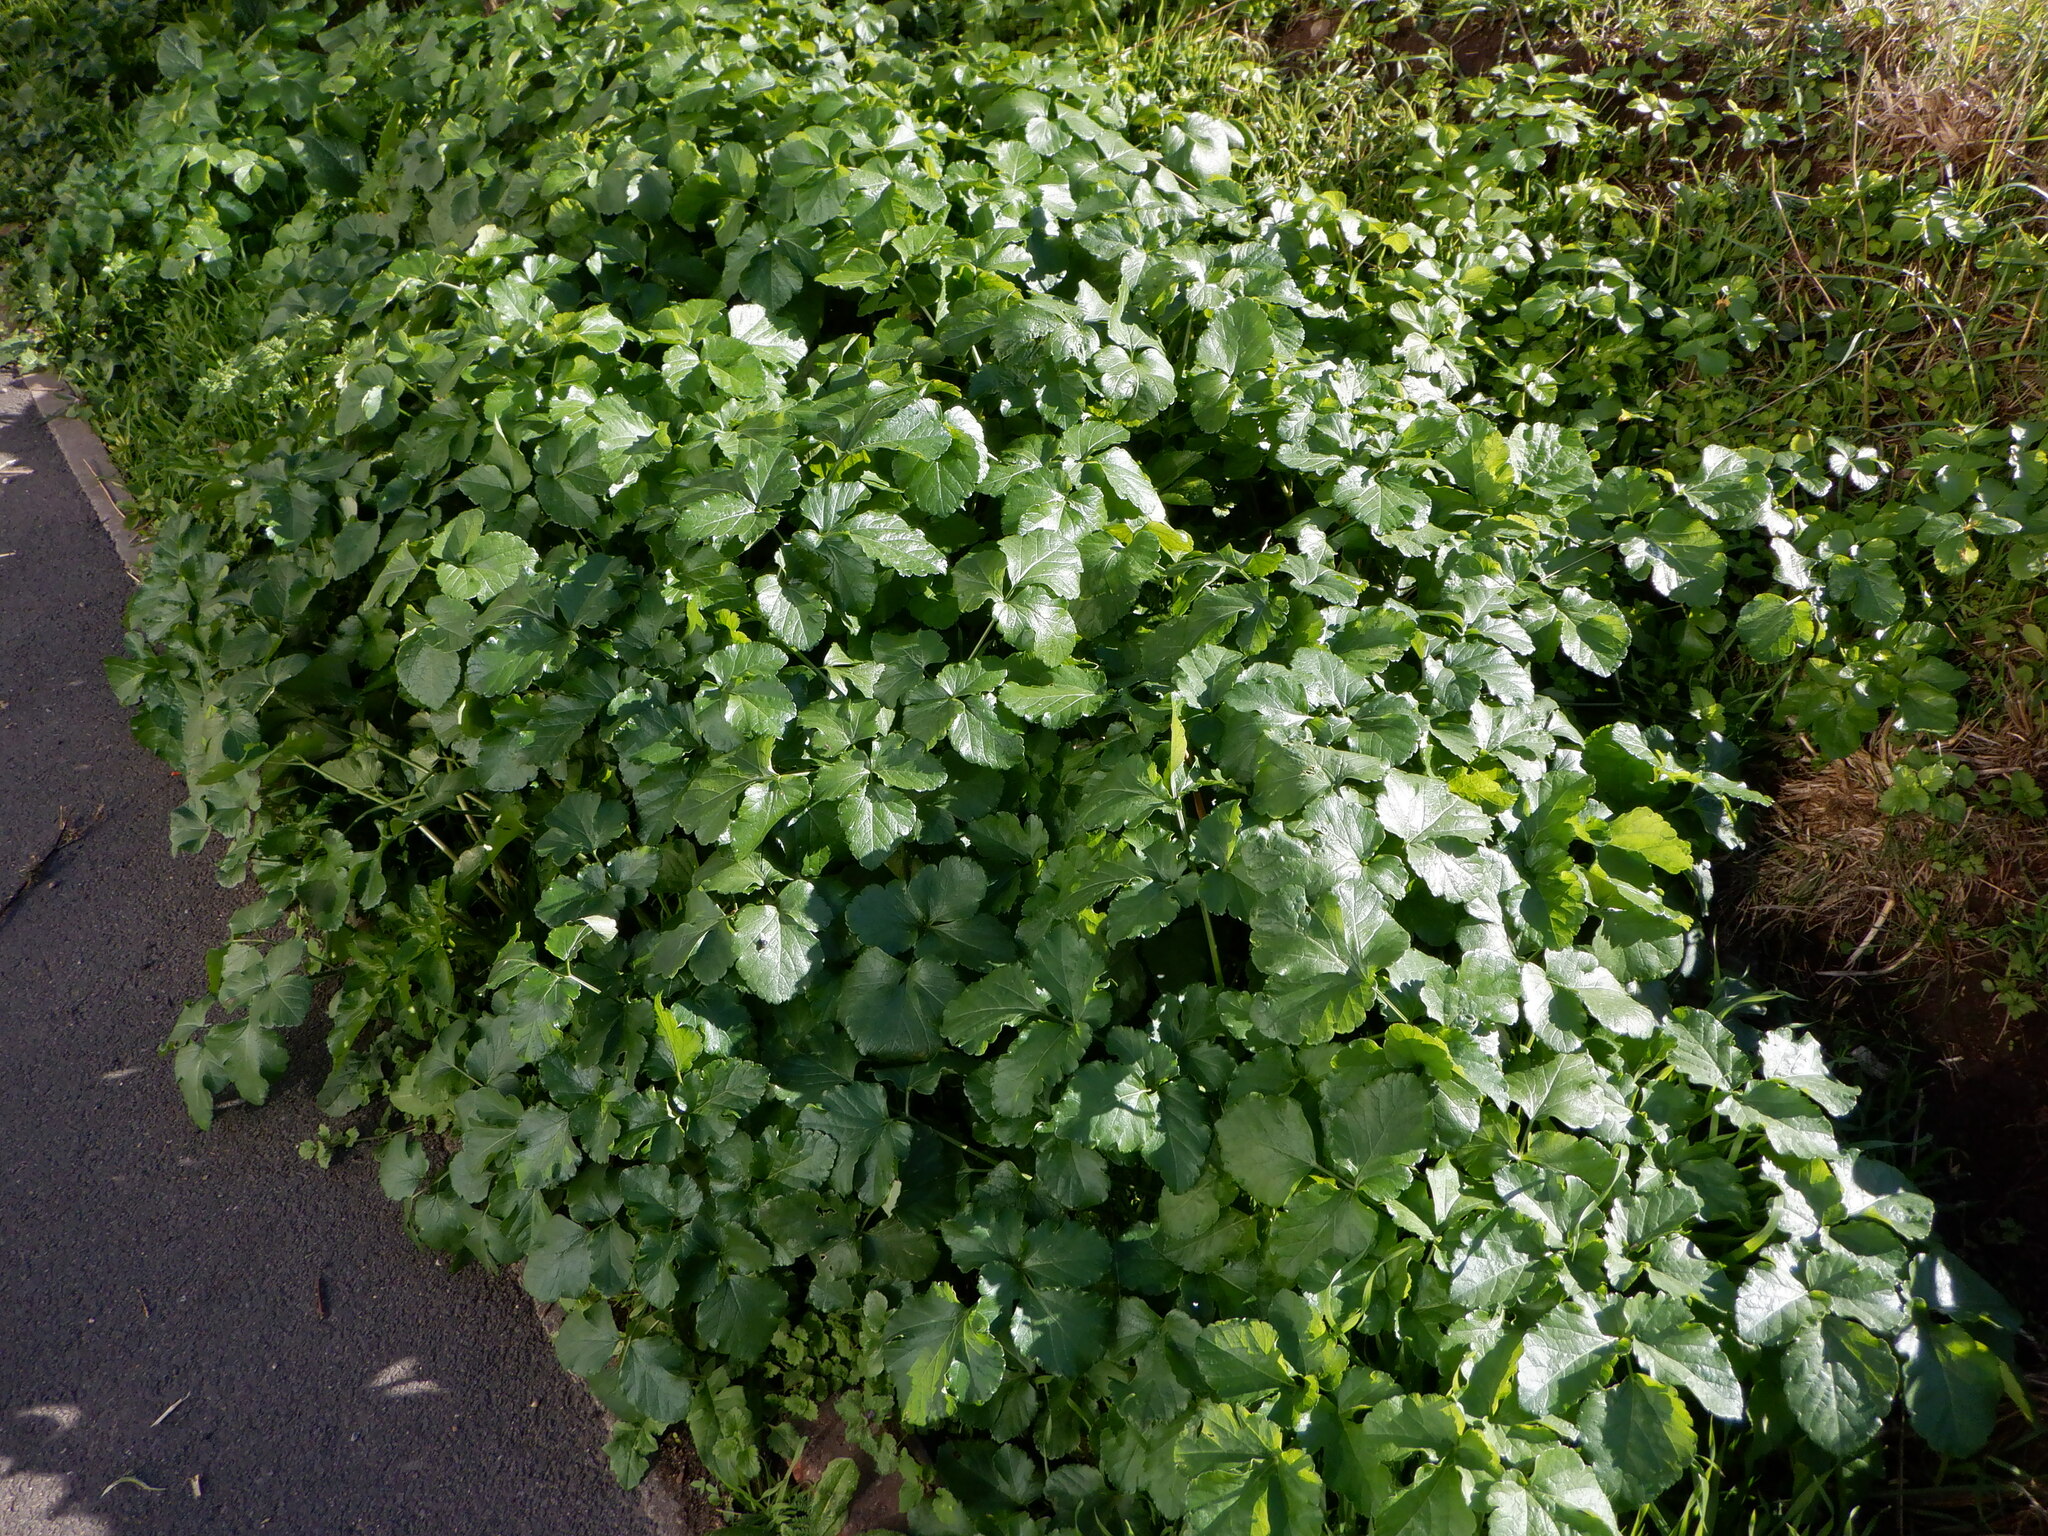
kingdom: Plantae
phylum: Tracheophyta
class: Magnoliopsida
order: Apiales
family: Apiaceae
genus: Smyrnium
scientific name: Smyrnium olusatrum
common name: Alexanders
